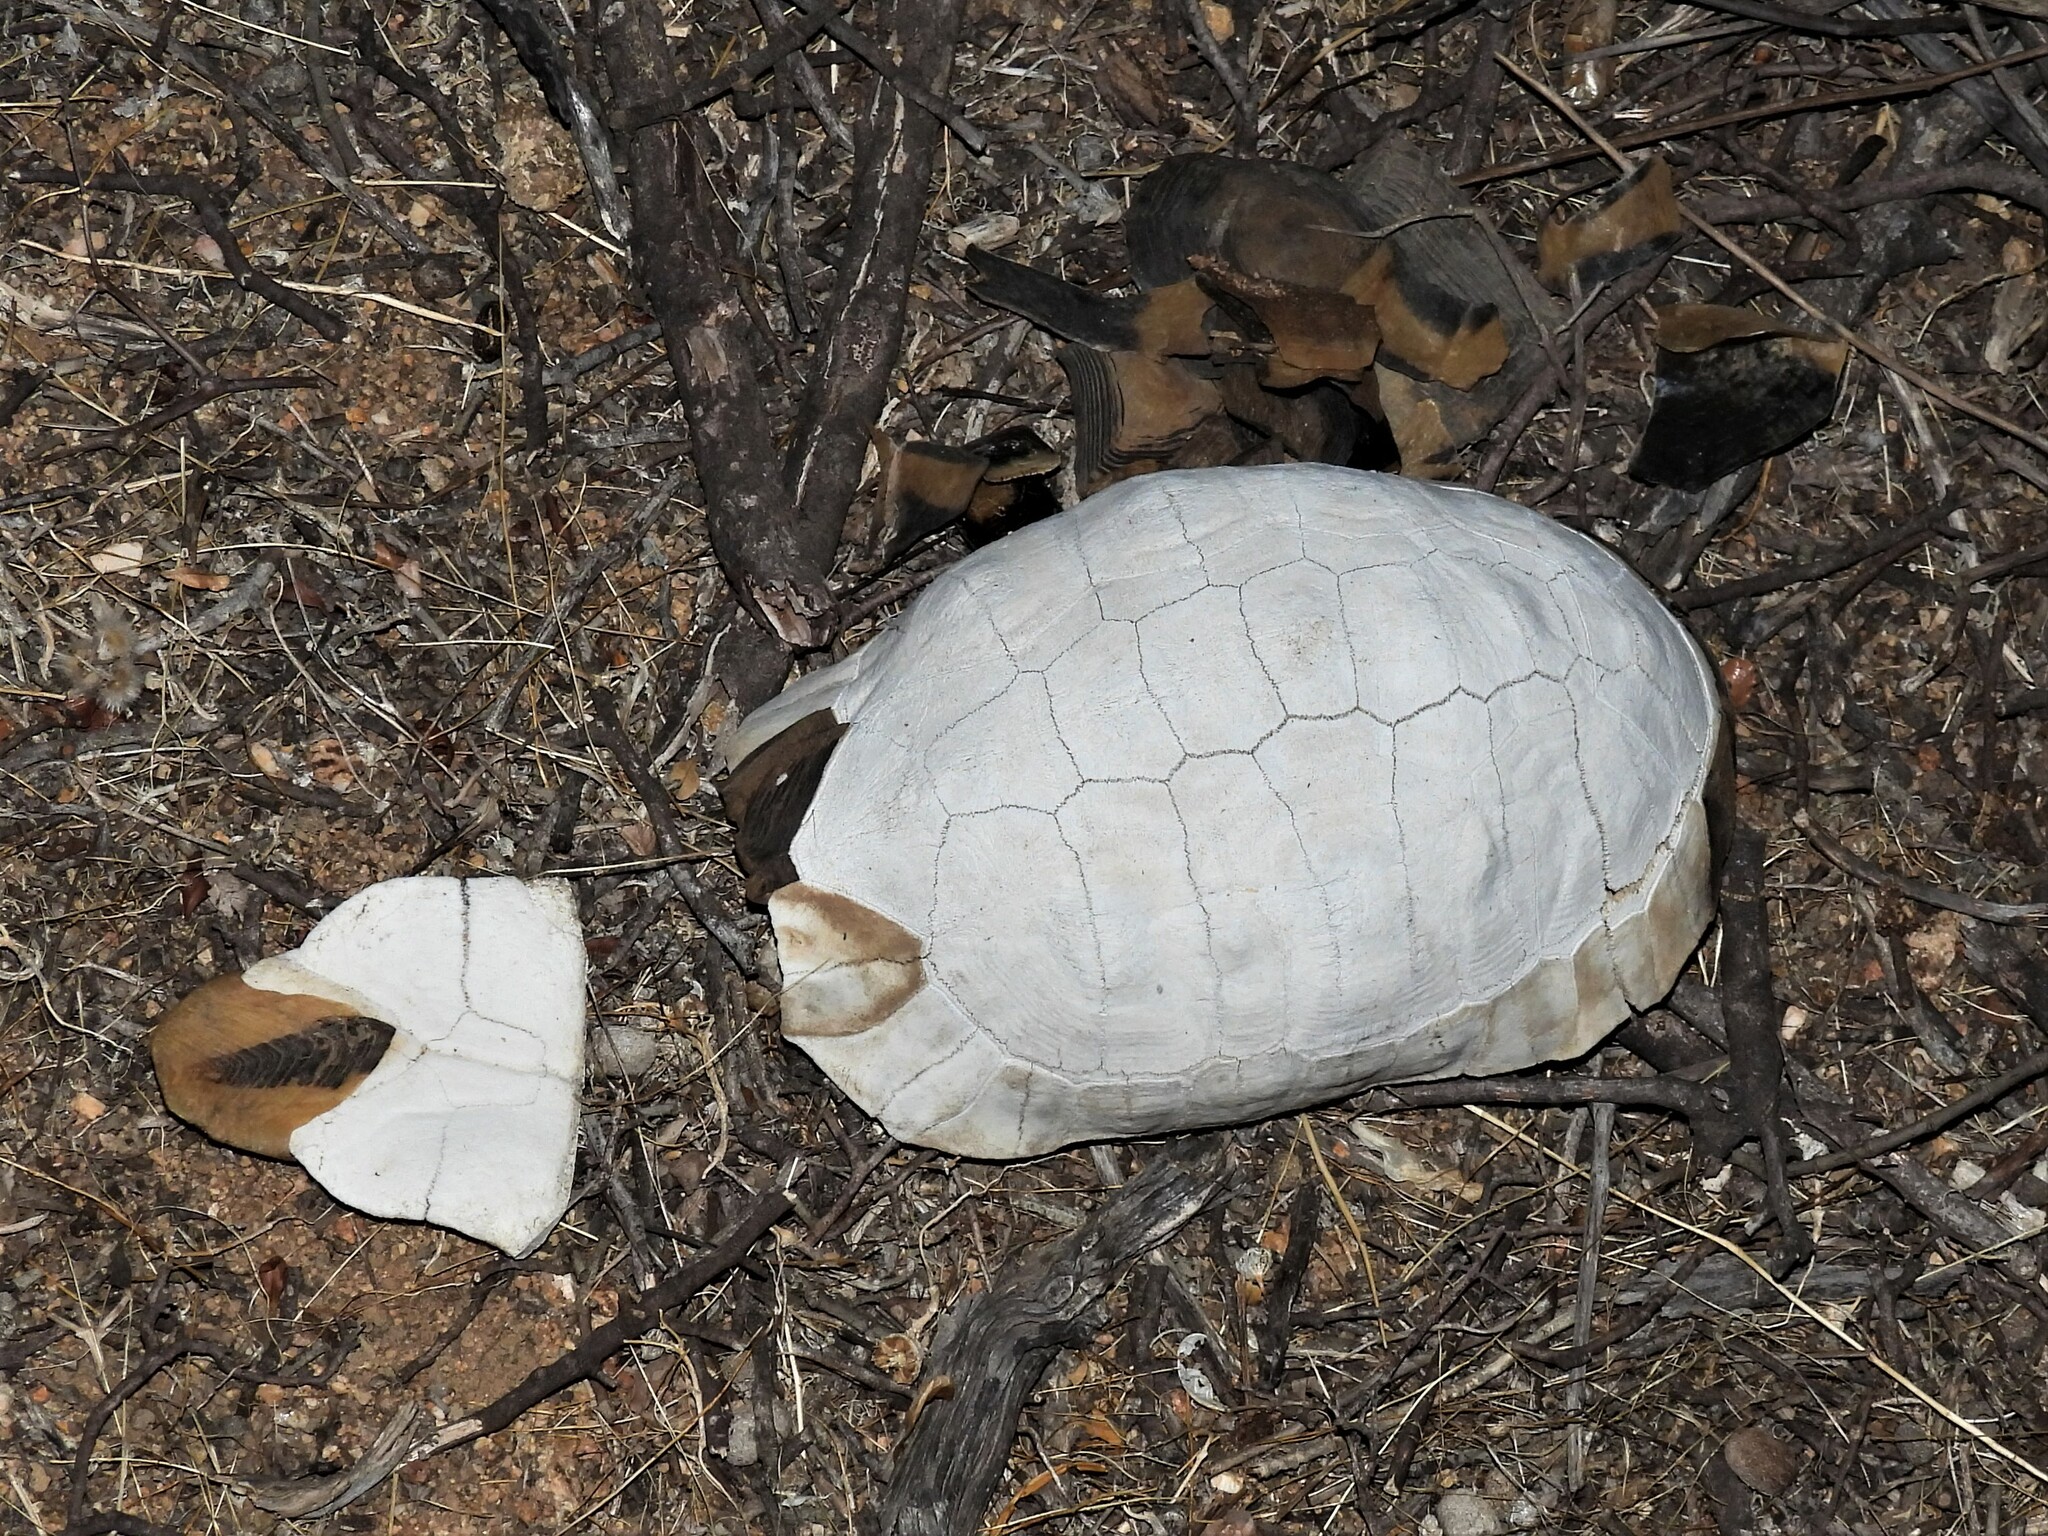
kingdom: Animalia
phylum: Chordata
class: Testudines
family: Testudinidae
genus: Chersina
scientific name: Chersina angulata
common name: South african bowsprit tortoise
